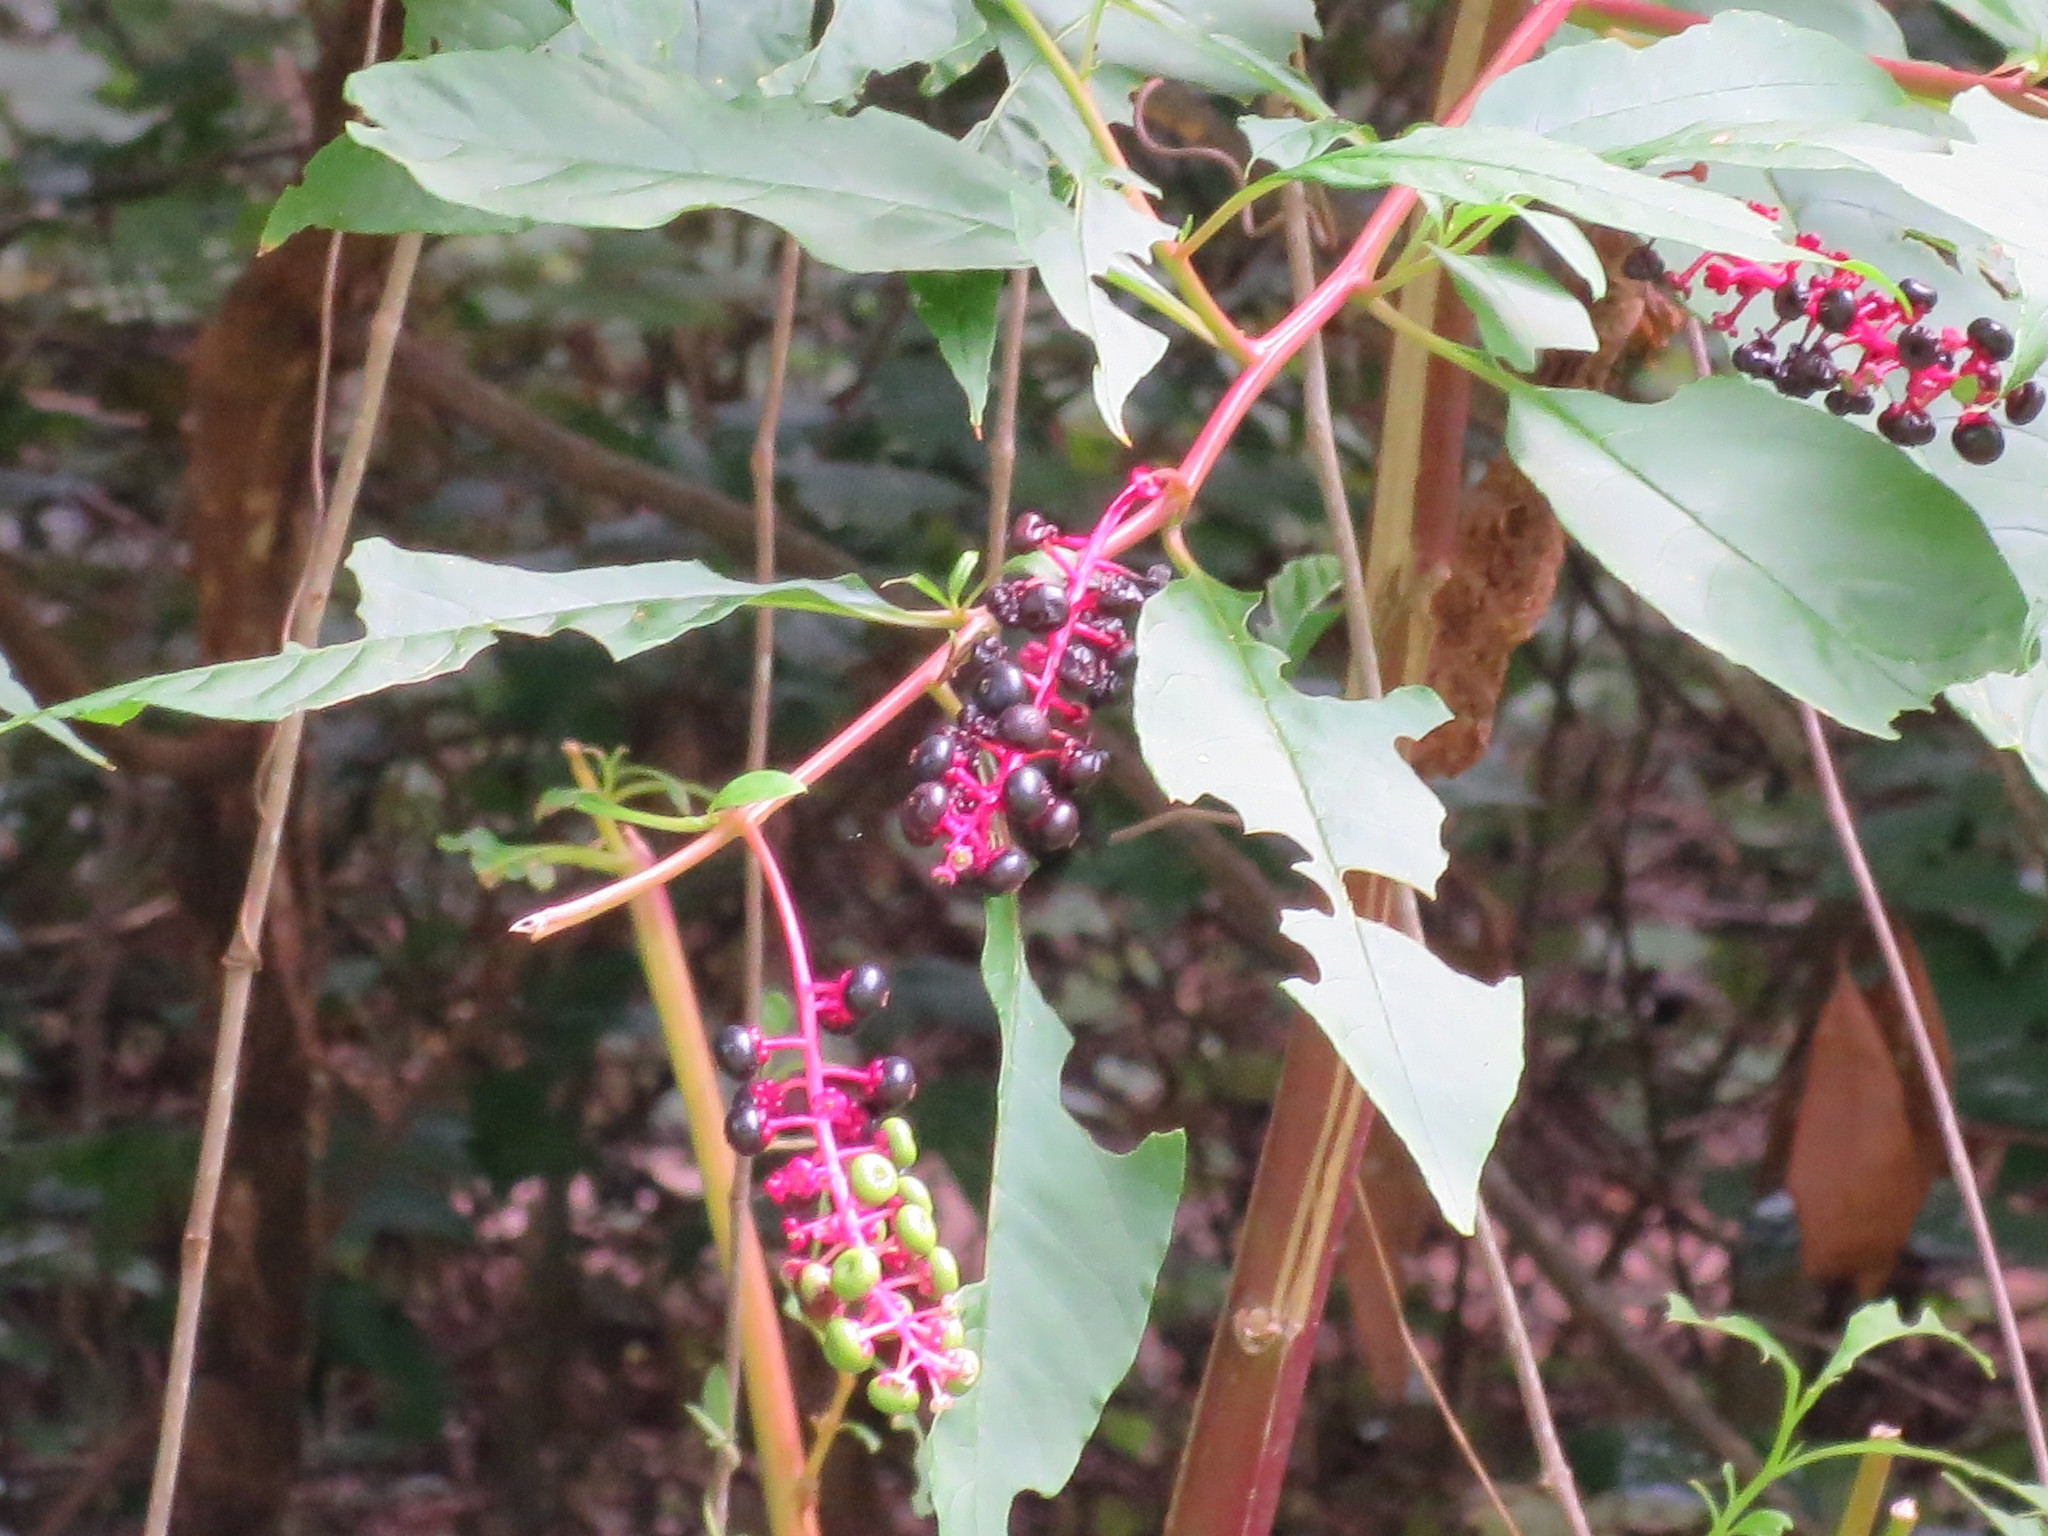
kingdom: Plantae
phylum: Tracheophyta
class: Magnoliopsida
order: Caryophyllales
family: Phytolaccaceae
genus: Phytolacca
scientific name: Phytolacca americana
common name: American pokeweed
